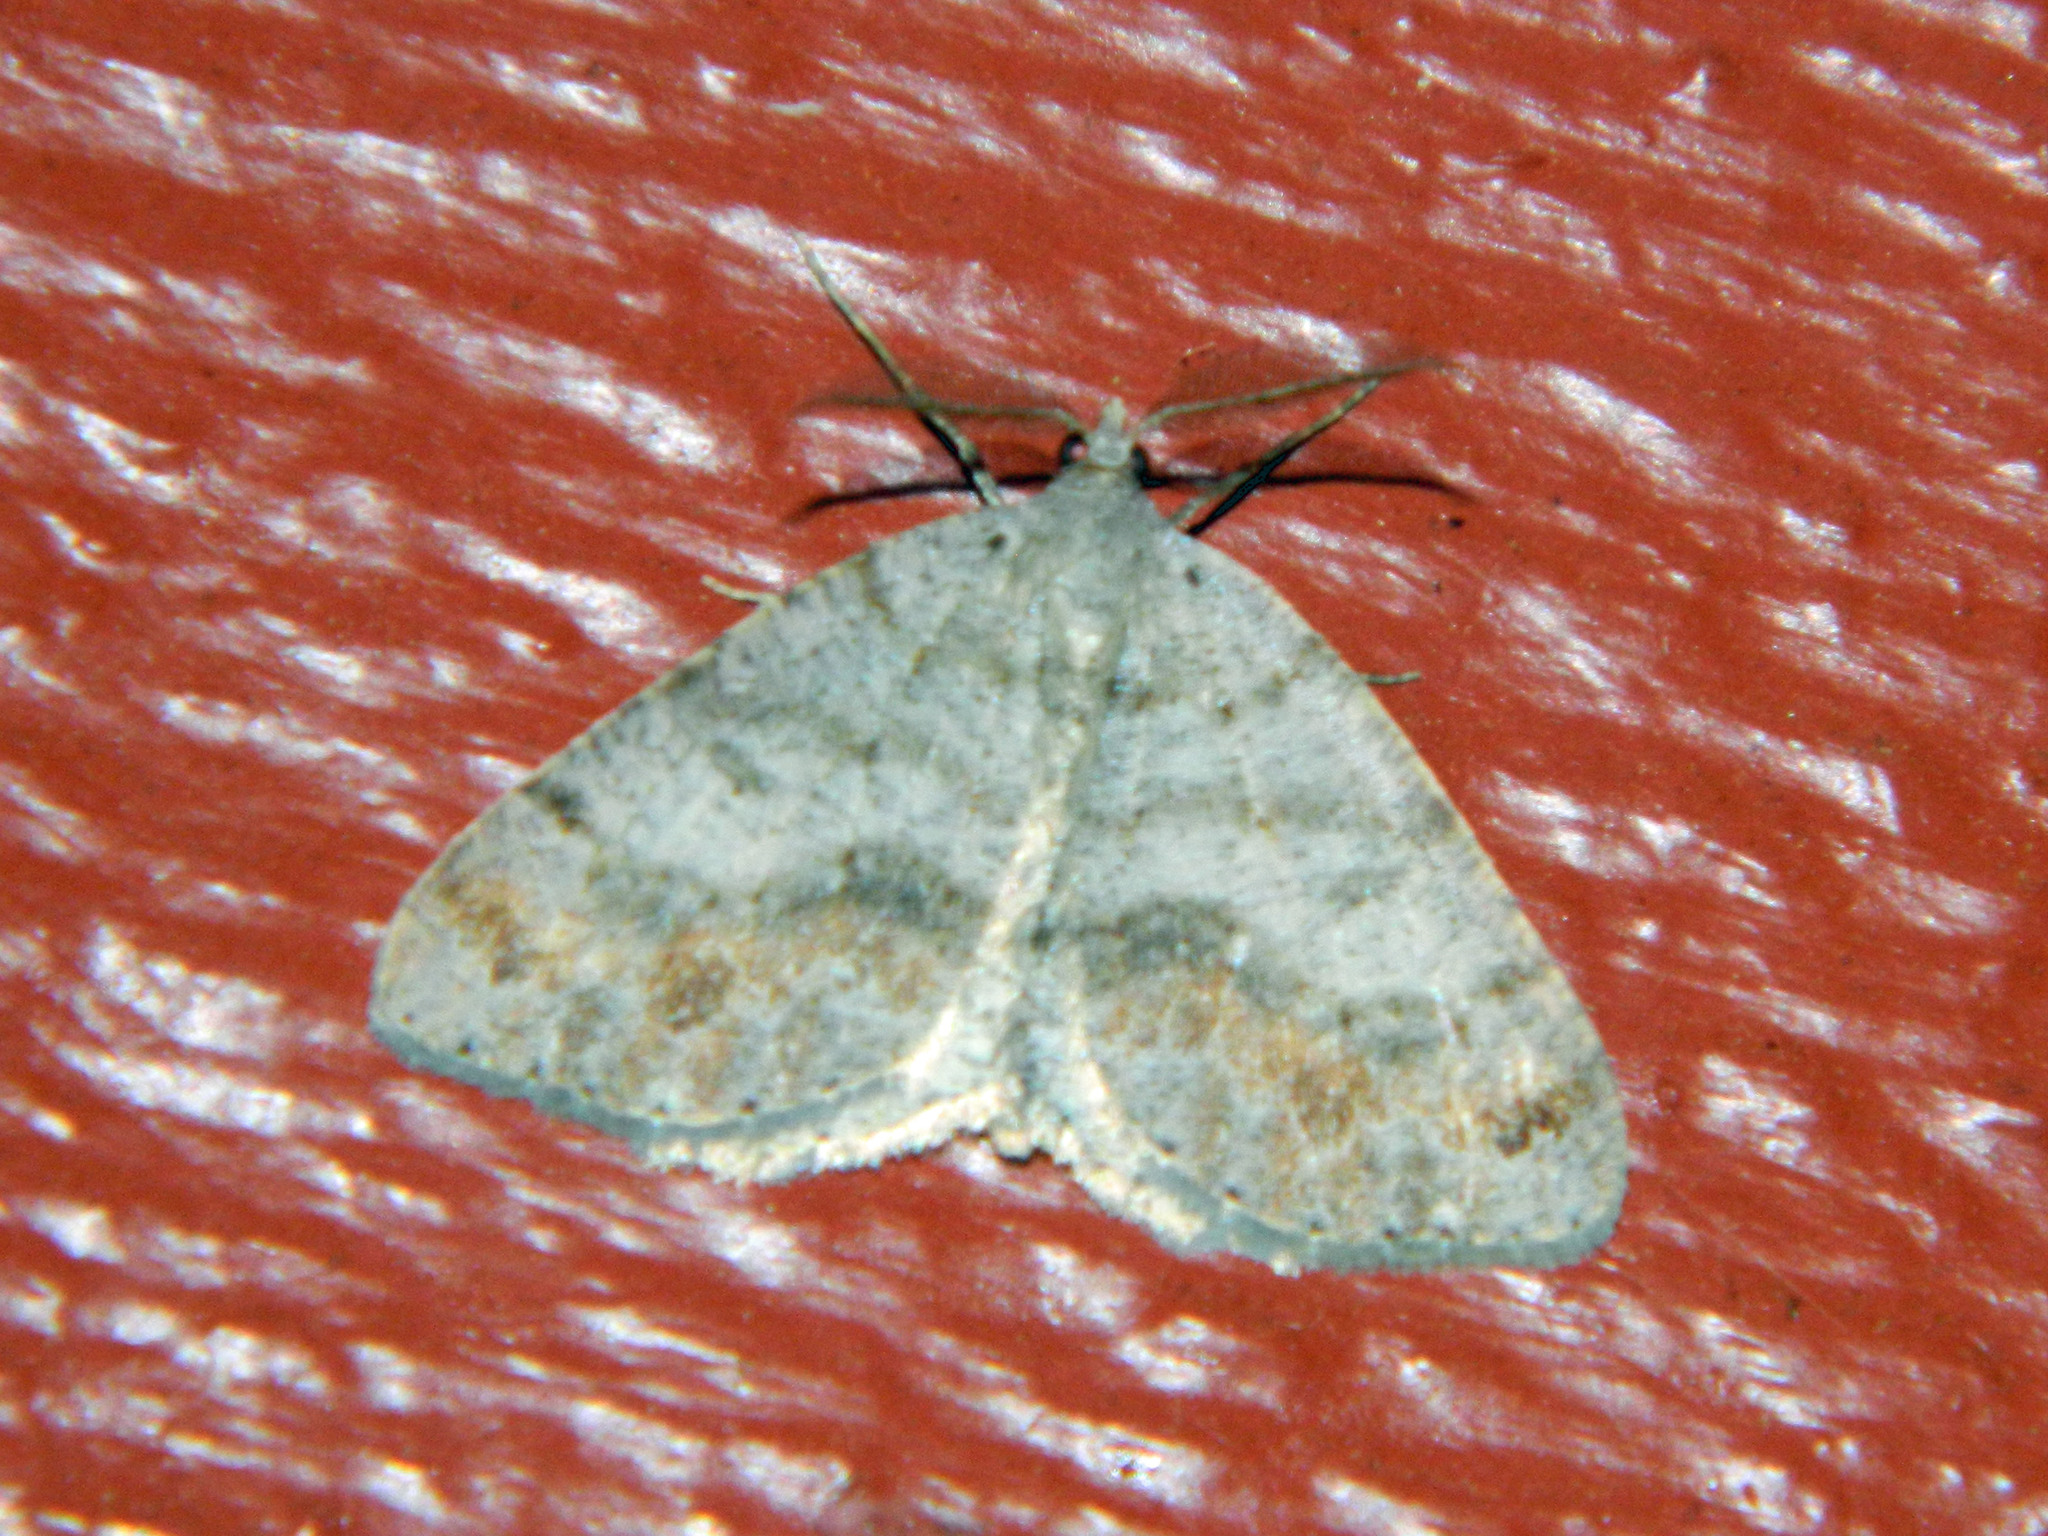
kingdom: Animalia
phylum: Arthropoda
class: Insecta
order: Lepidoptera
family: Geometridae
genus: Macaria
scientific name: Macaria loricaria
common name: False bruce spanworm
